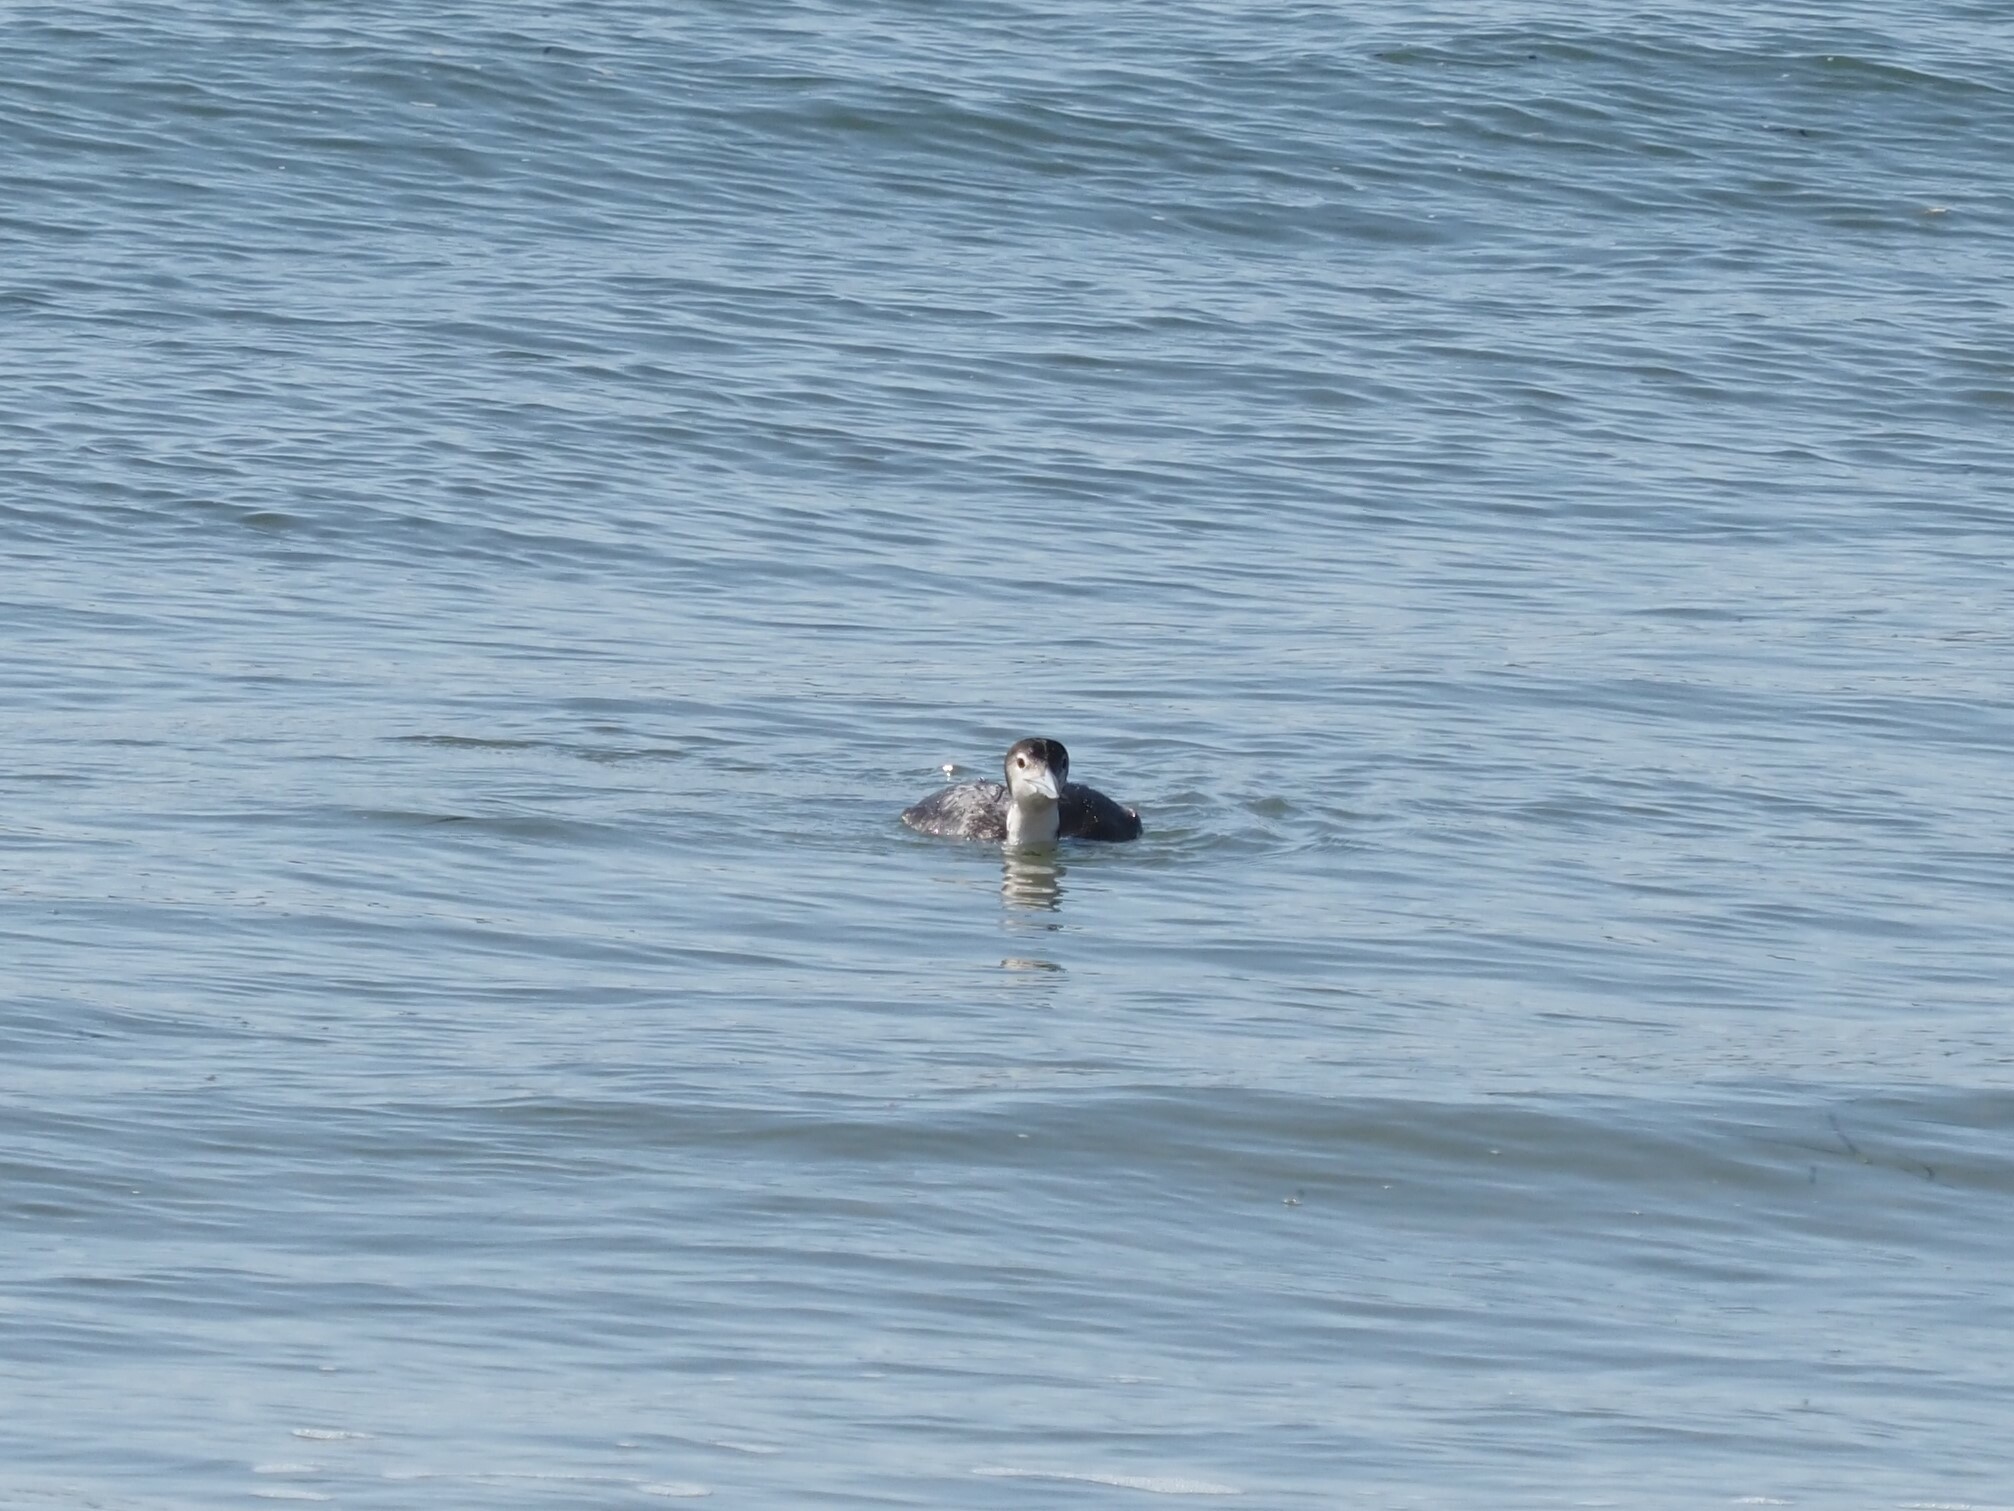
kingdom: Animalia
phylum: Chordata
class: Aves
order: Gaviiformes
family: Gaviidae
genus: Gavia
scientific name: Gavia immer
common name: Common loon
